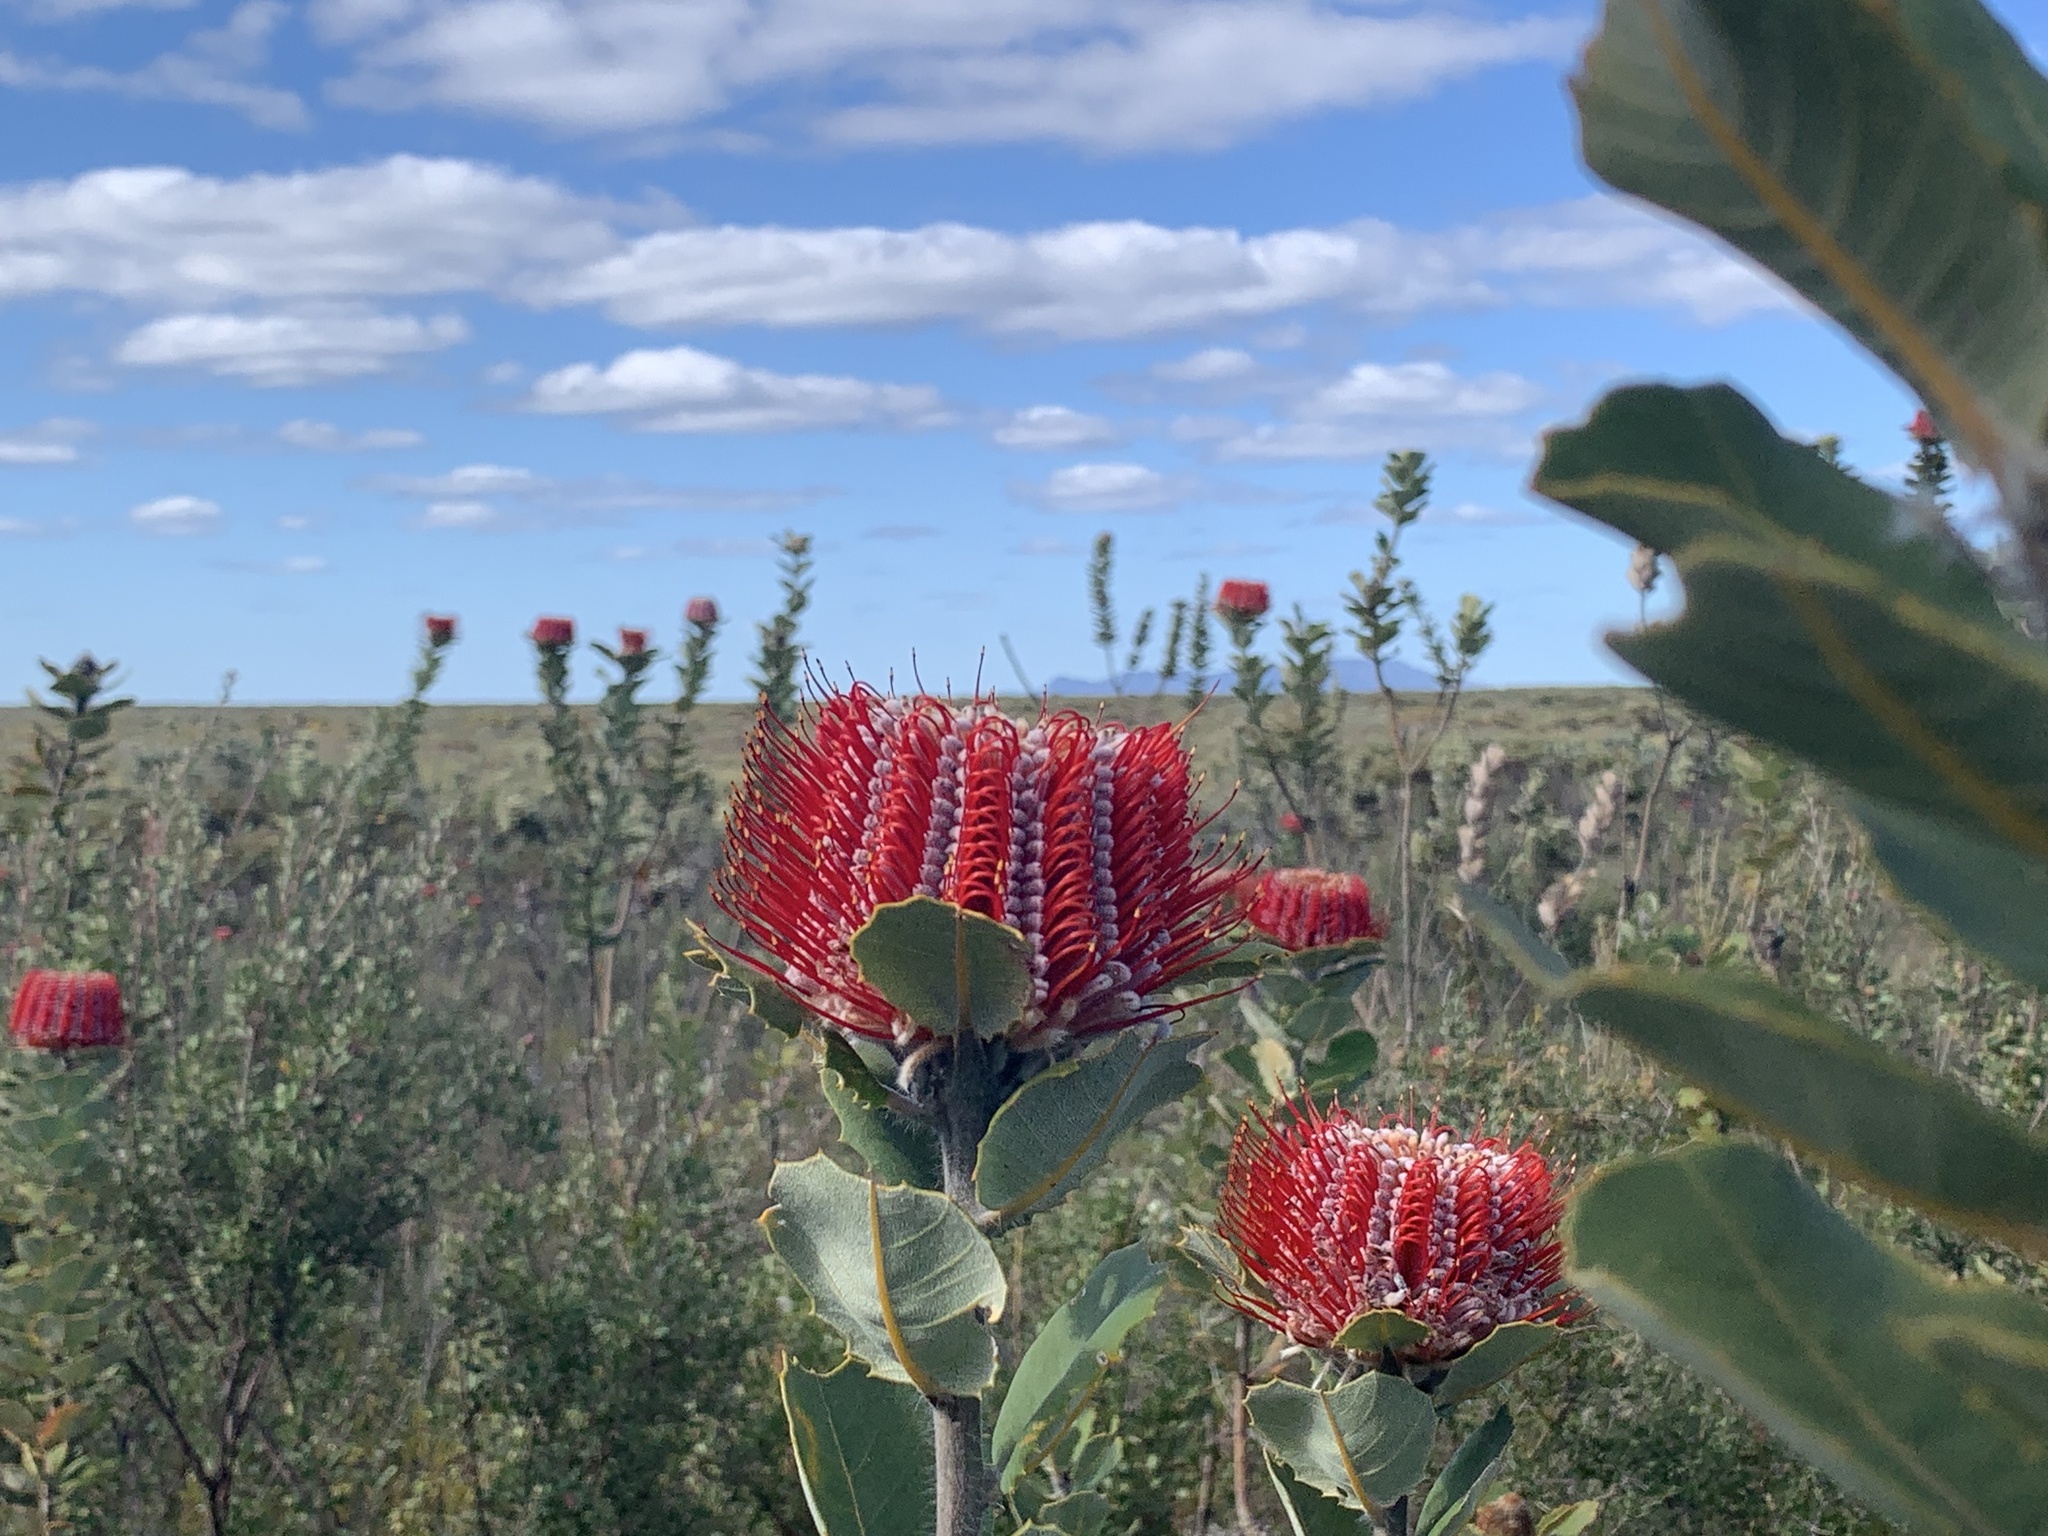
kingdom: Plantae
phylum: Tracheophyta
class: Magnoliopsida
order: Proteales
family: Proteaceae
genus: Banksia
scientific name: Banksia coccinea
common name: Scarlet banksia
